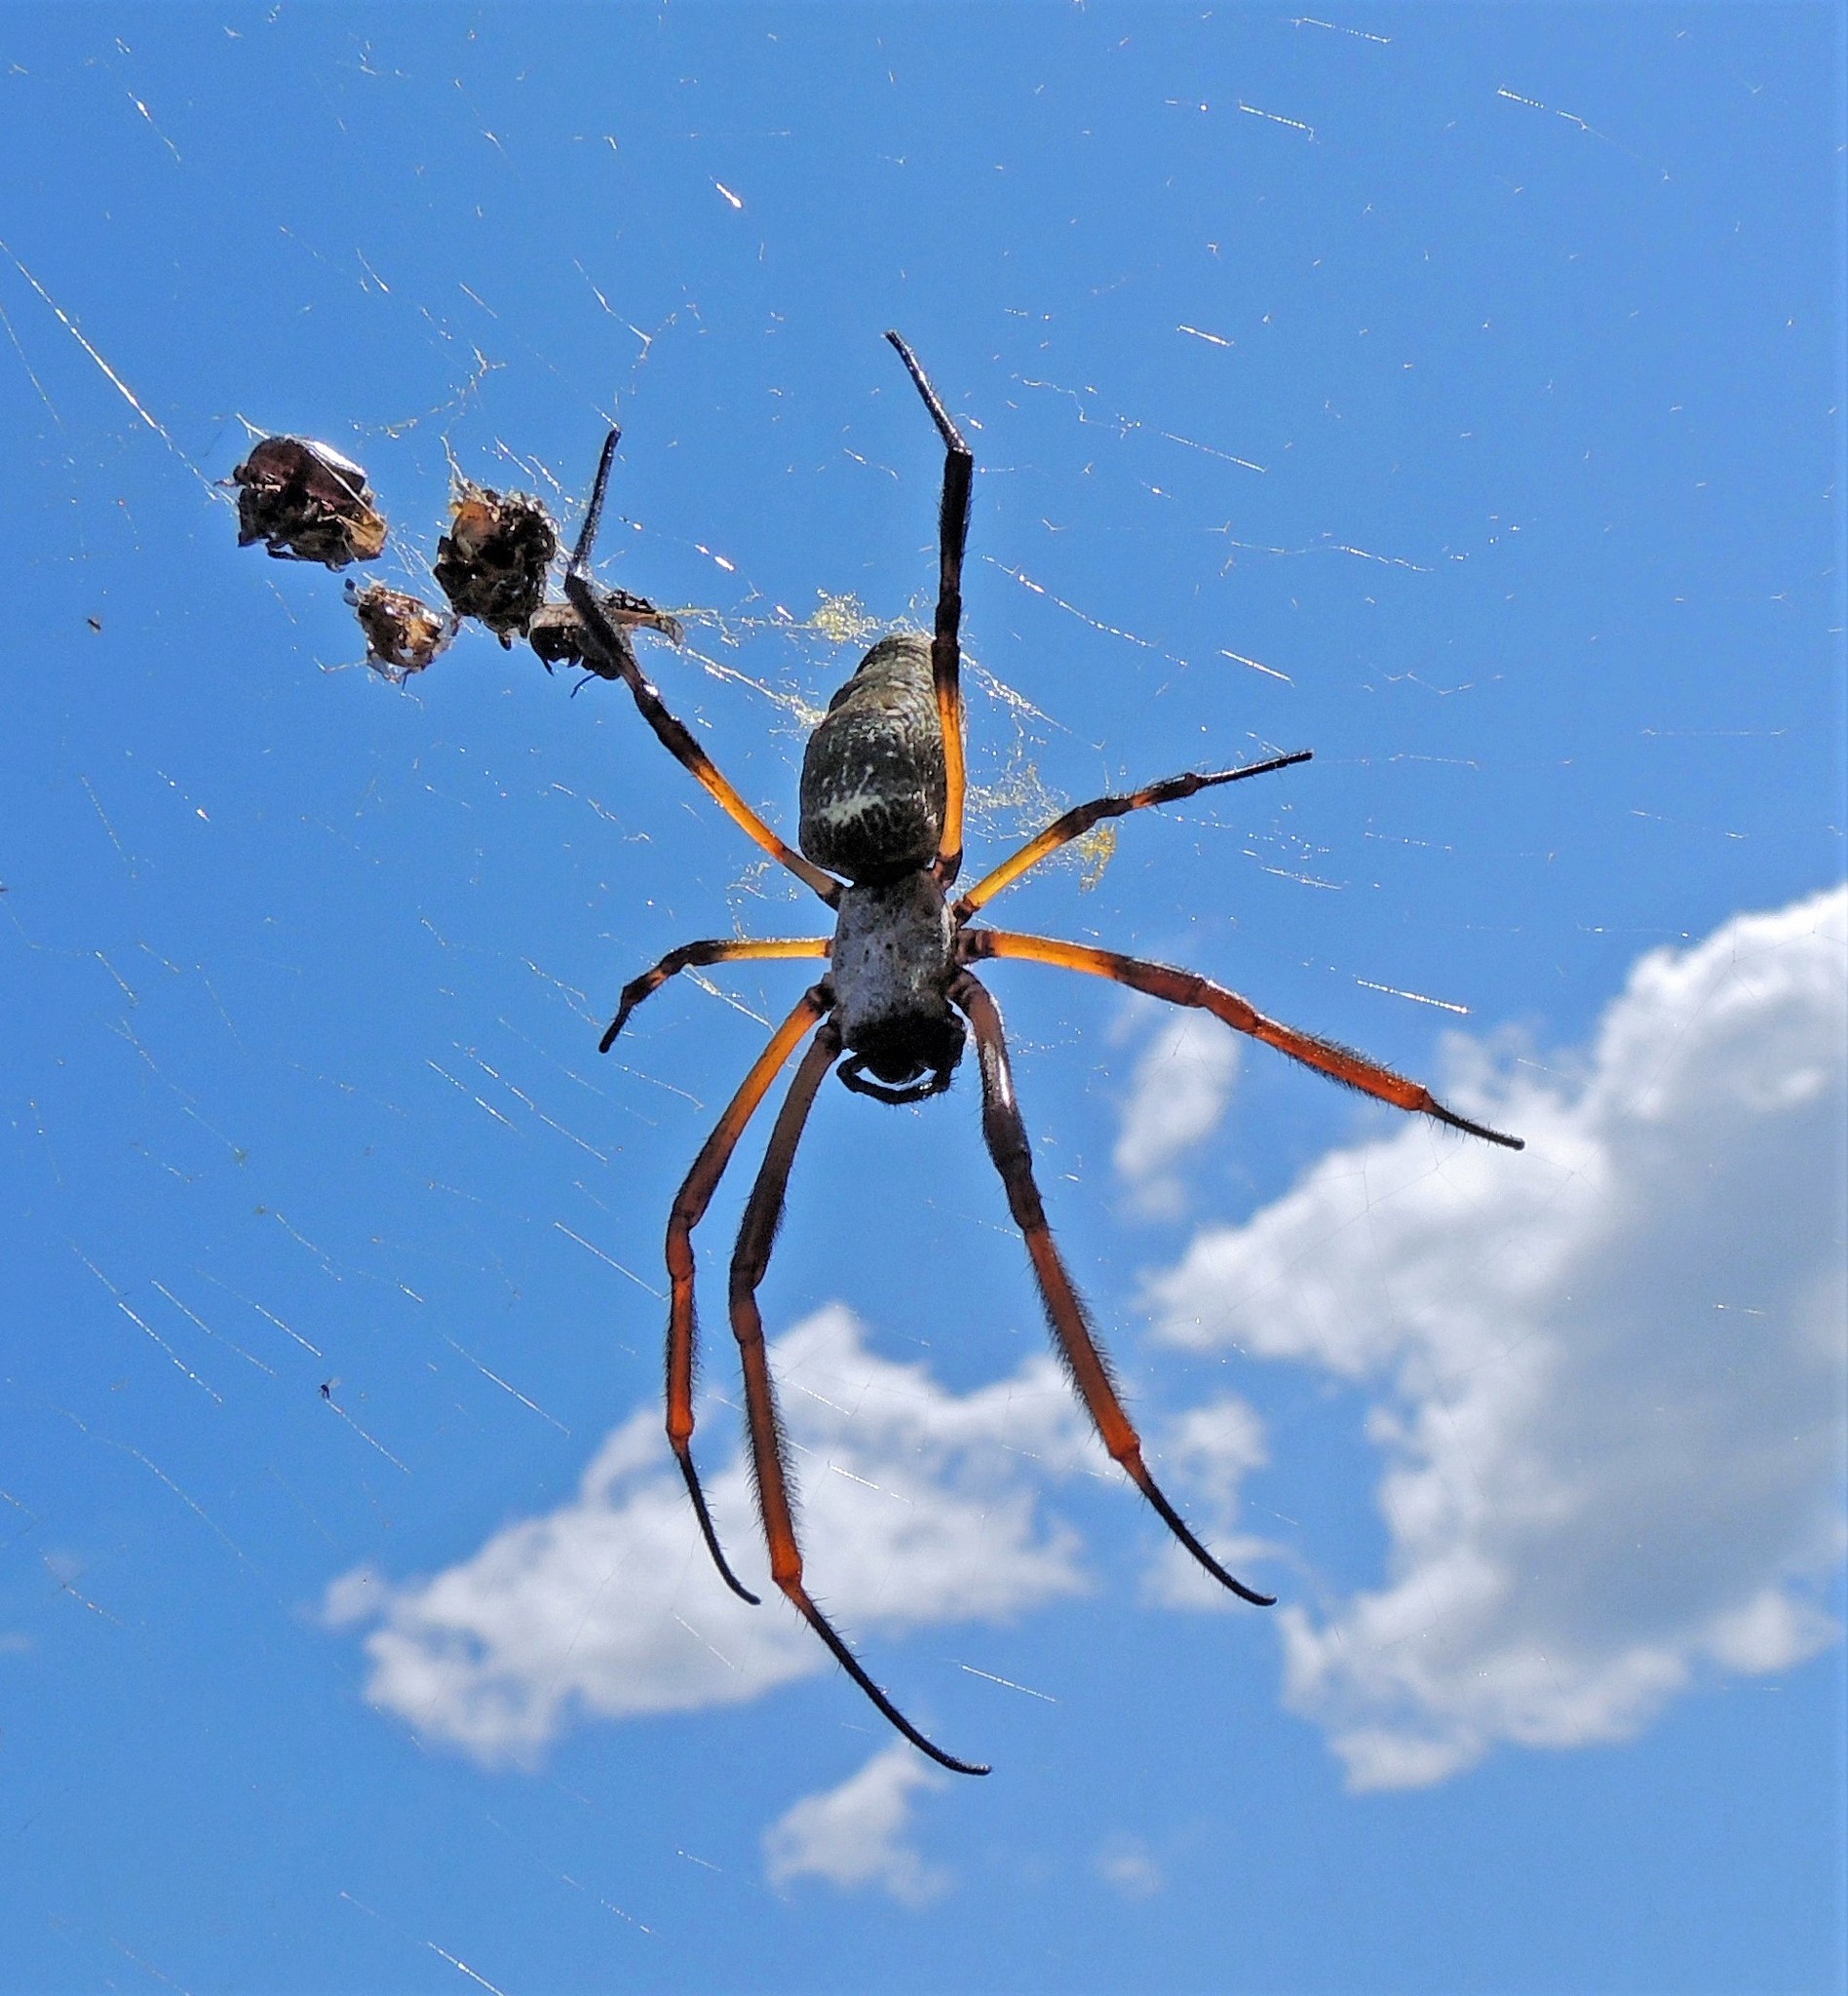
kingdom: Animalia
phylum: Arthropoda
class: Arachnida
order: Araneae
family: Araneidae
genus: Trichonephila
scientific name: Trichonephila sexpunctata
